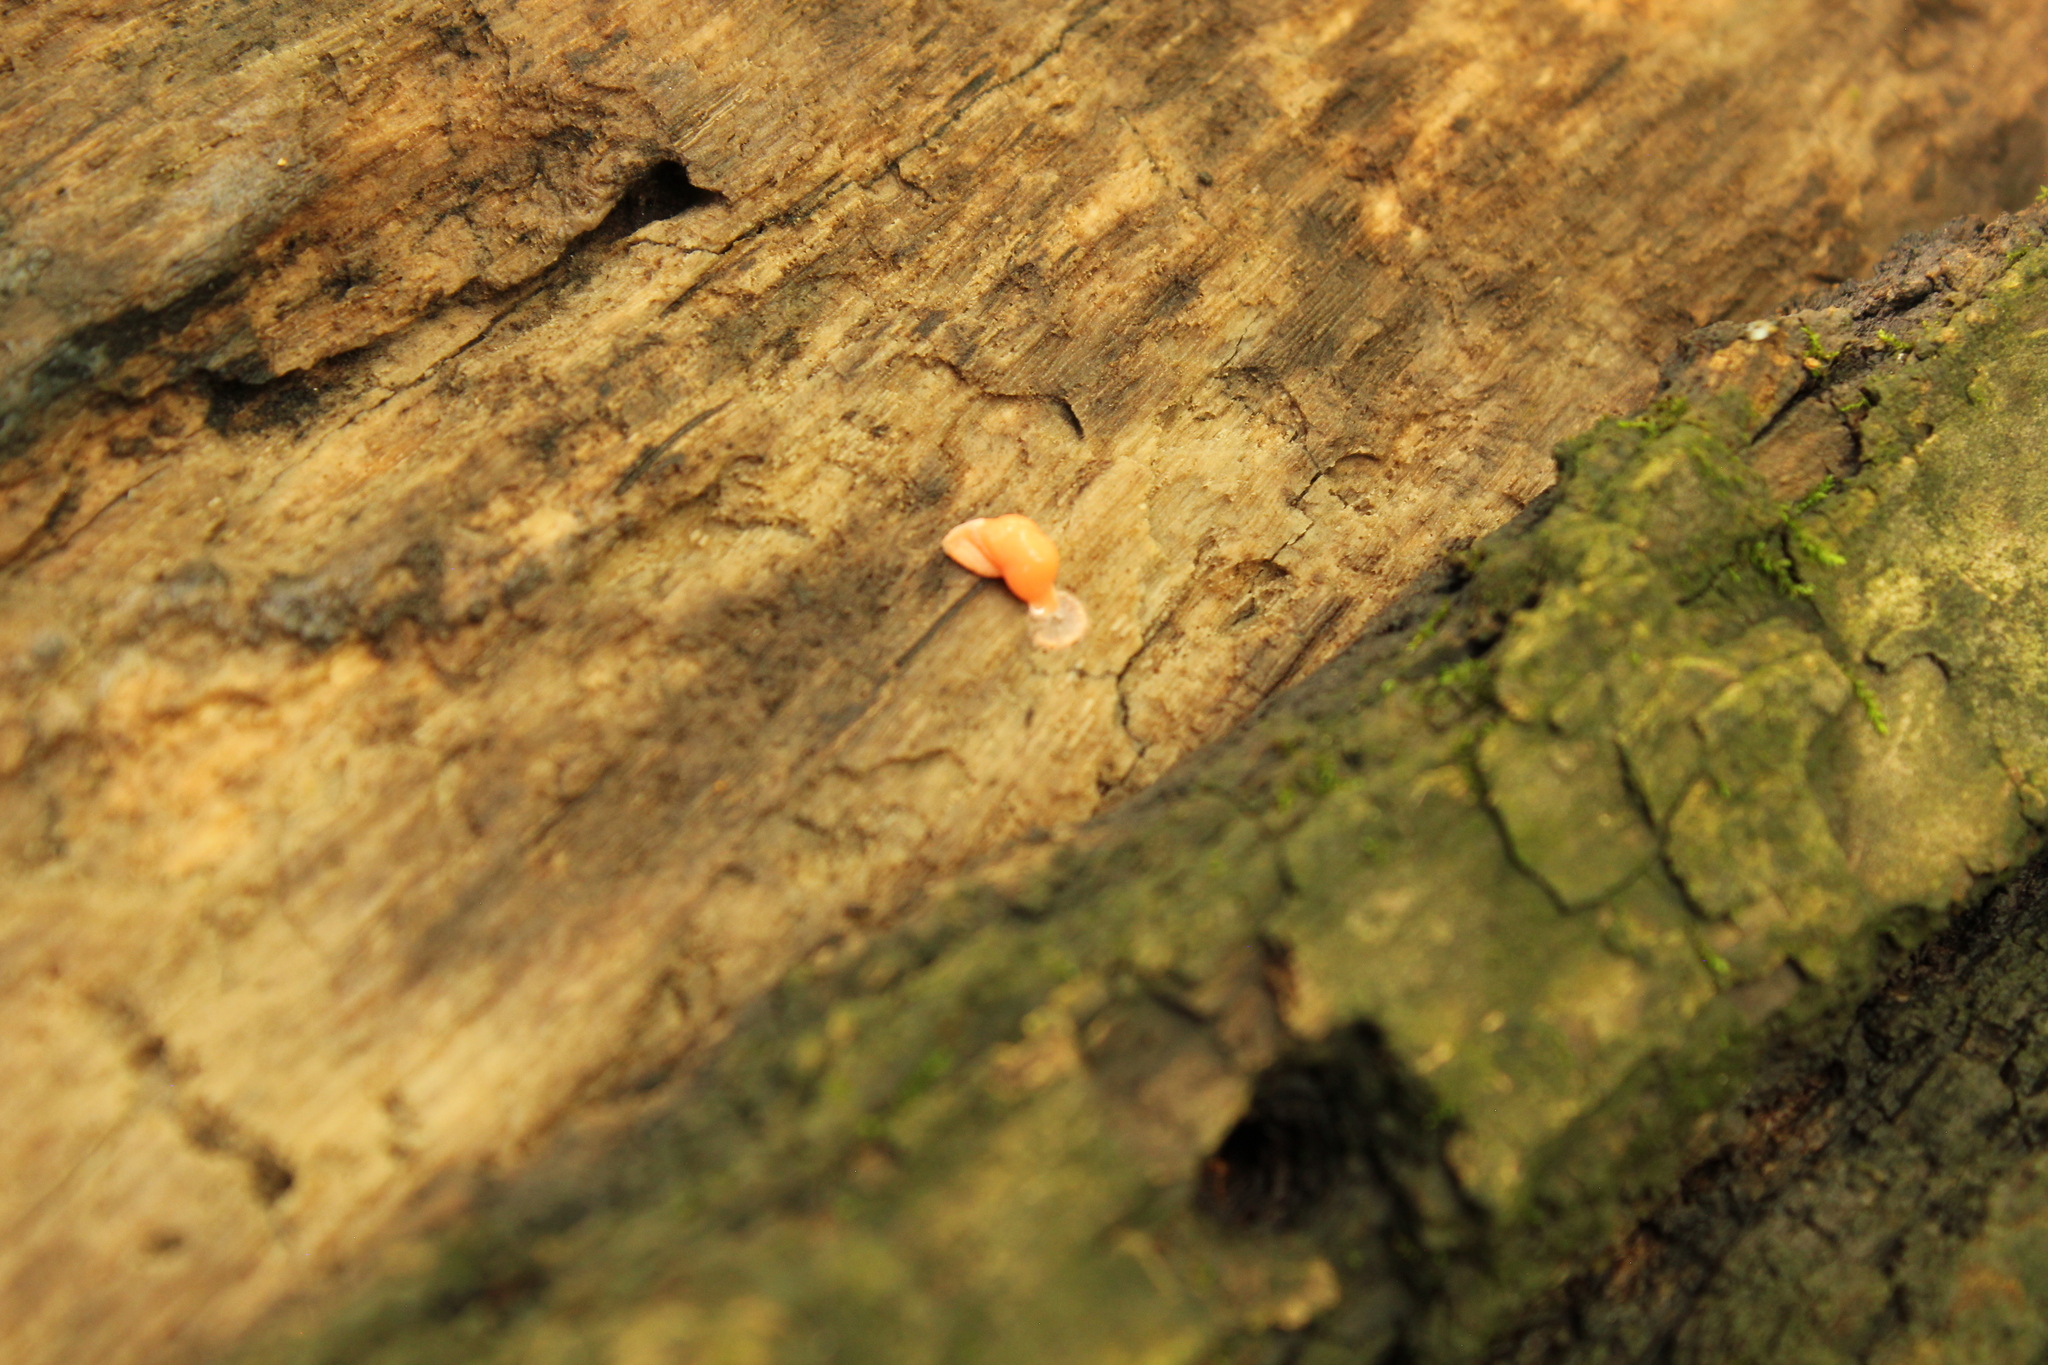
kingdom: Protozoa
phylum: Mycetozoa
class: Myxomycetes
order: Cribrariales
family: Tubiferaceae
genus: Lycogala
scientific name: Lycogala epidendrum
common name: Wolf's milk
